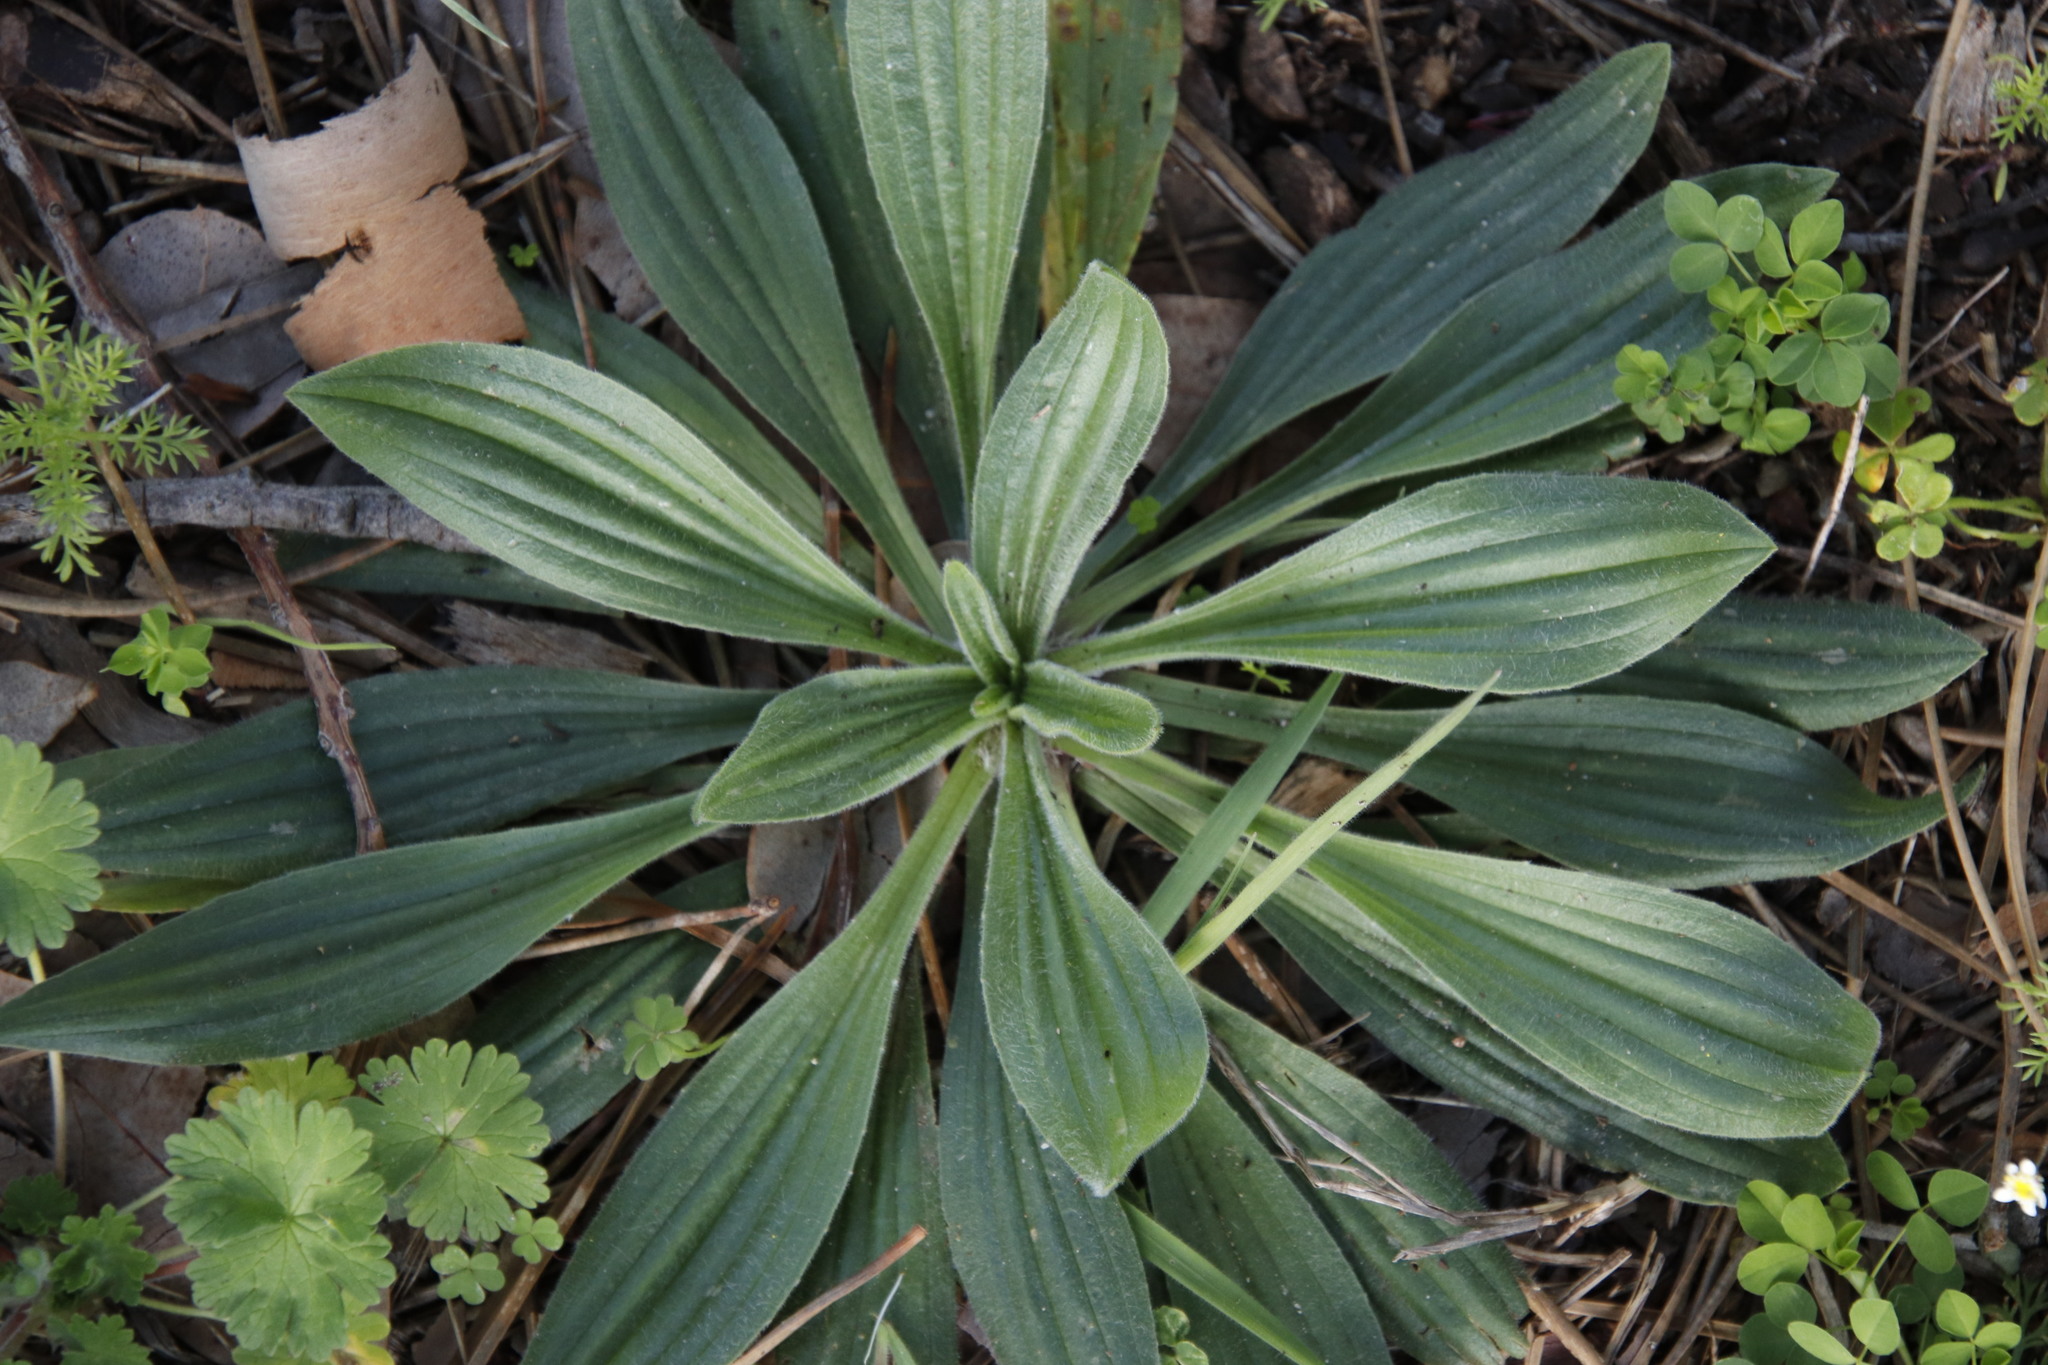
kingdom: Plantae
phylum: Tracheophyta
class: Magnoliopsida
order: Lamiales
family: Plantaginaceae
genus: Plantago
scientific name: Plantago lanceolata
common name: Ribwort plantain
